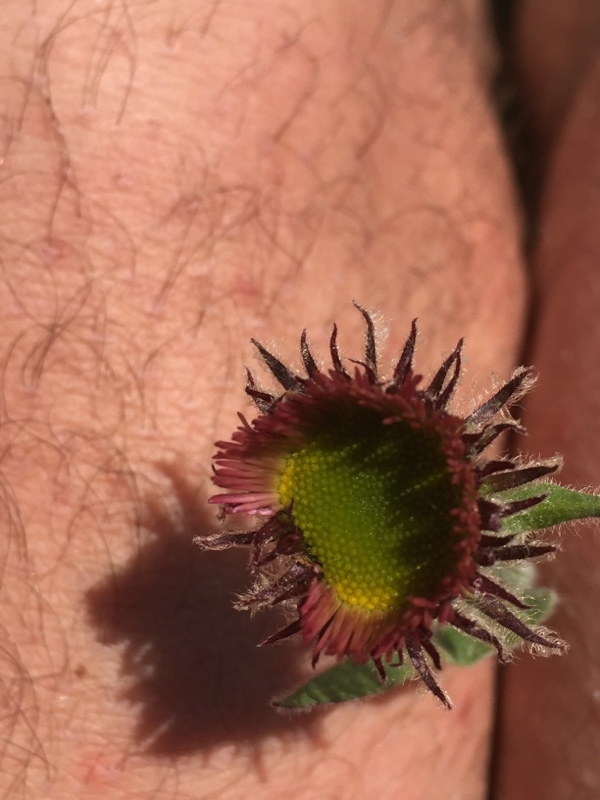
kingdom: Plantae
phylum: Tracheophyta
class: Magnoliopsida
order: Asterales
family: Asteraceae
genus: Erigeron
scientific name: Erigeron acris
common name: Blue fleabane
